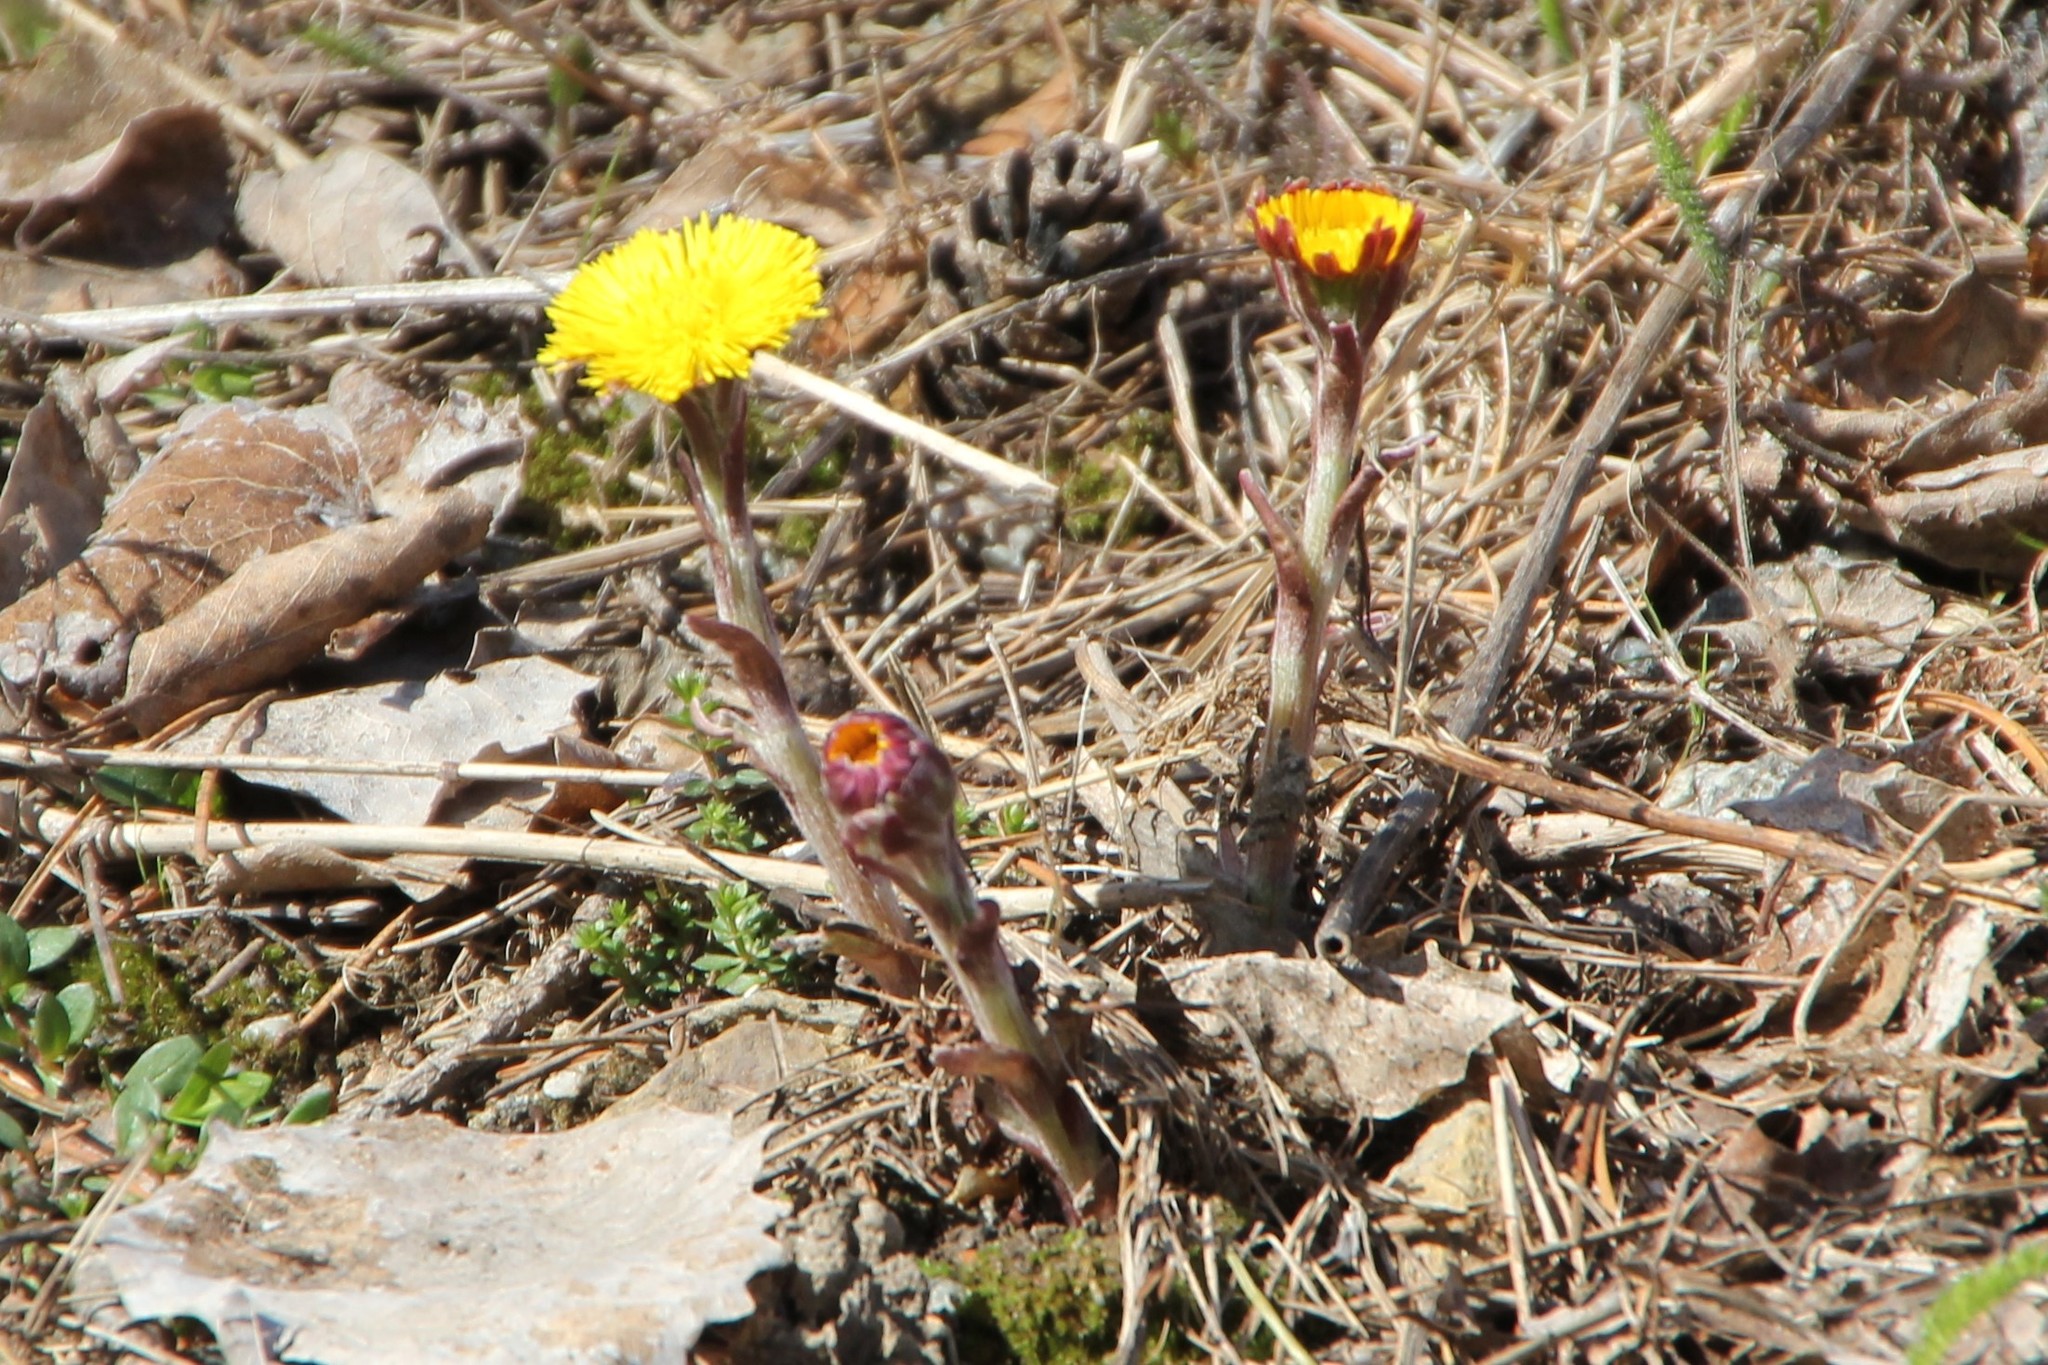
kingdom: Plantae
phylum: Tracheophyta
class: Magnoliopsida
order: Asterales
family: Asteraceae
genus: Tussilago
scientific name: Tussilago farfara
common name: Coltsfoot
